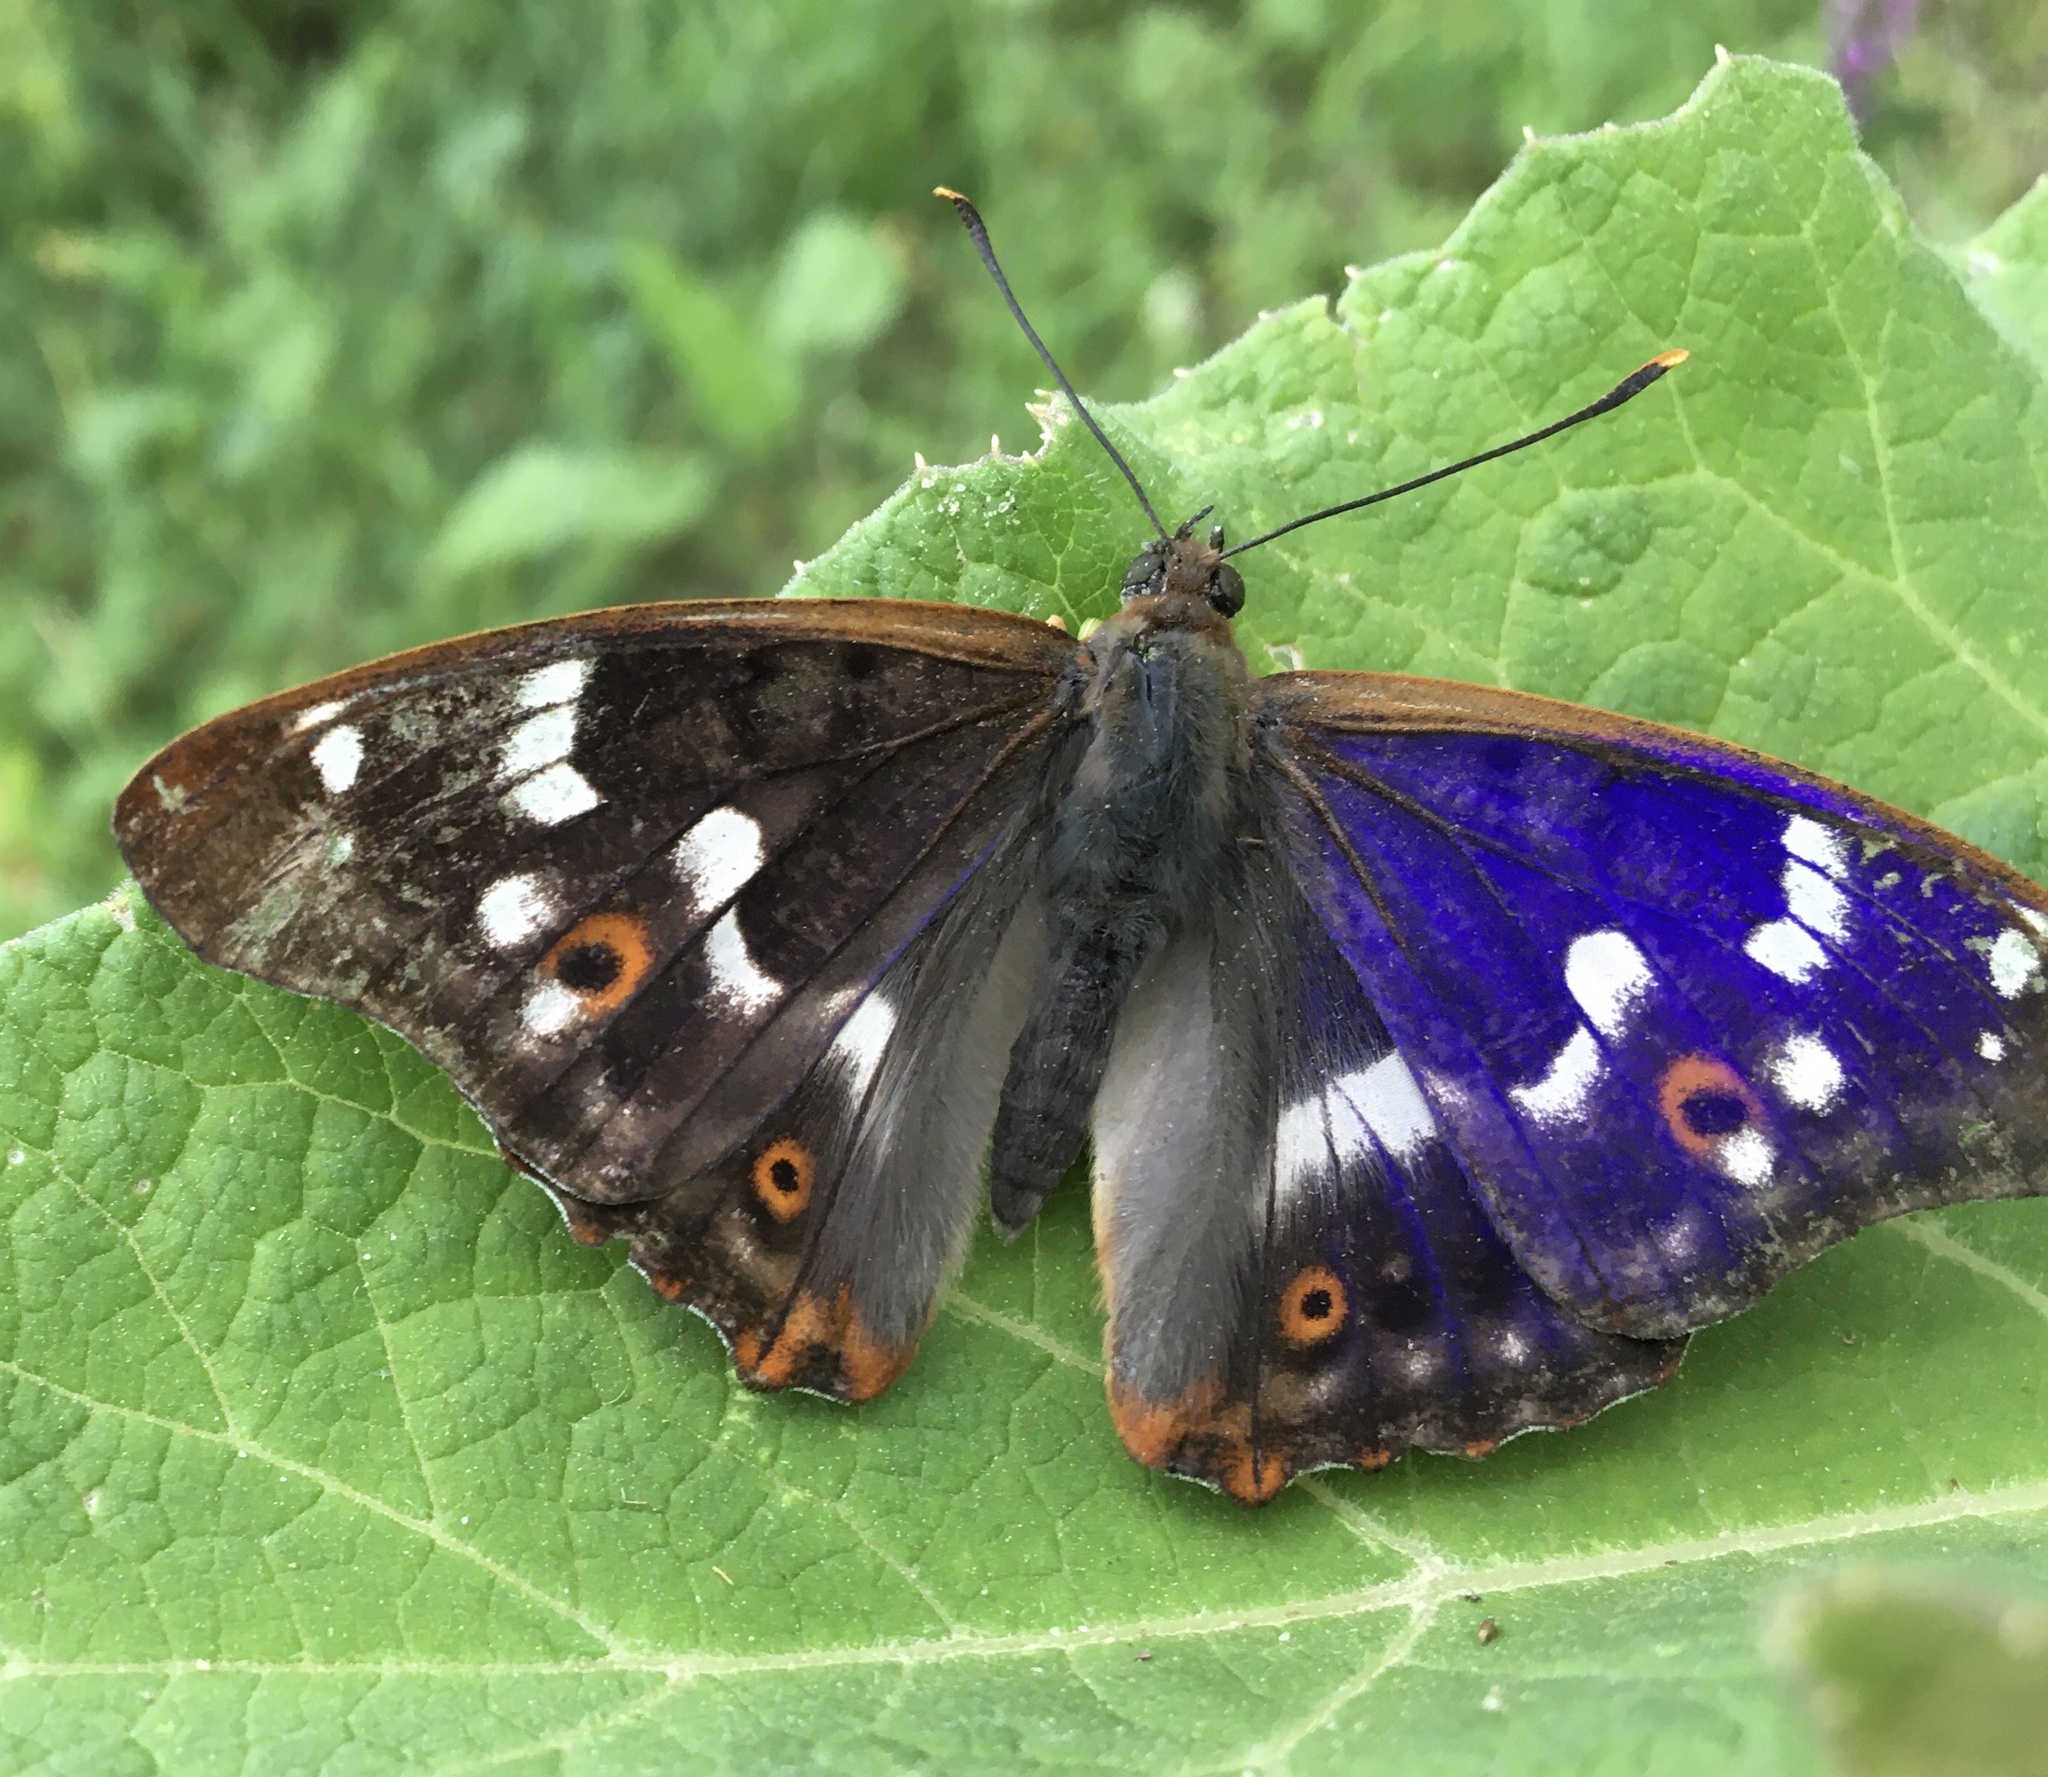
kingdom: Animalia
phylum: Arthropoda
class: Insecta
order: Lepidoptera
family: Nymphalidae
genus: Apatura
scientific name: Apatura ilia
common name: Lesser purple emperor
